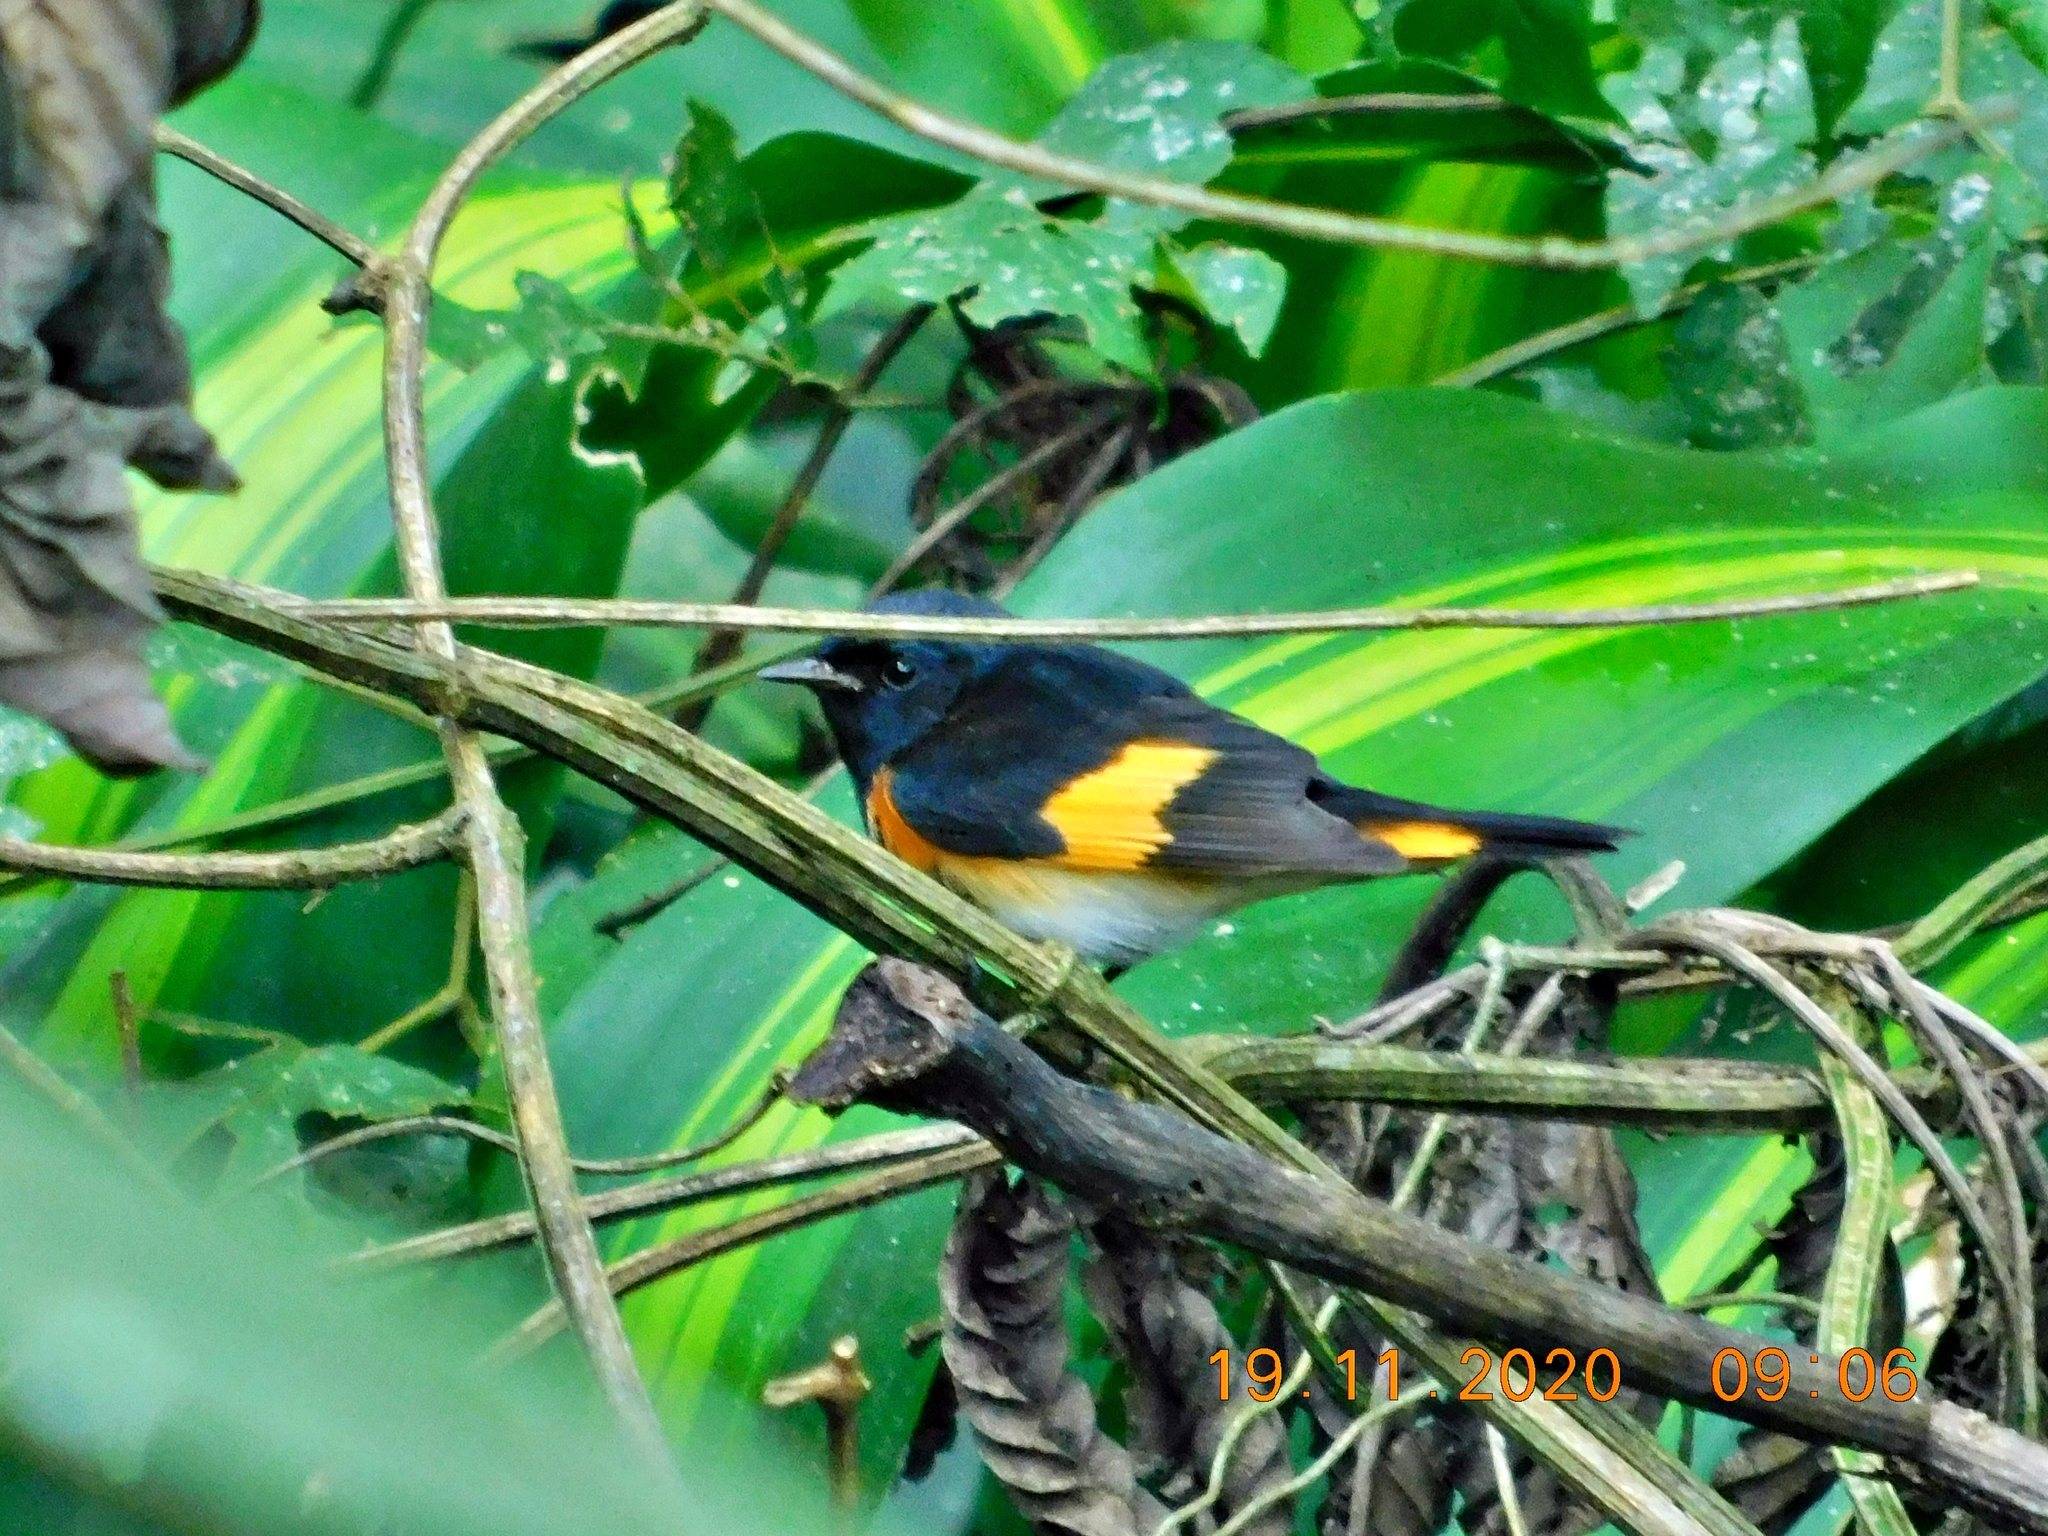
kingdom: Animalia
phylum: Chordata
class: Aves
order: Passeriformes
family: Parulidae
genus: Setophaga
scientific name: Setophaga ruticilla
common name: American redstart
